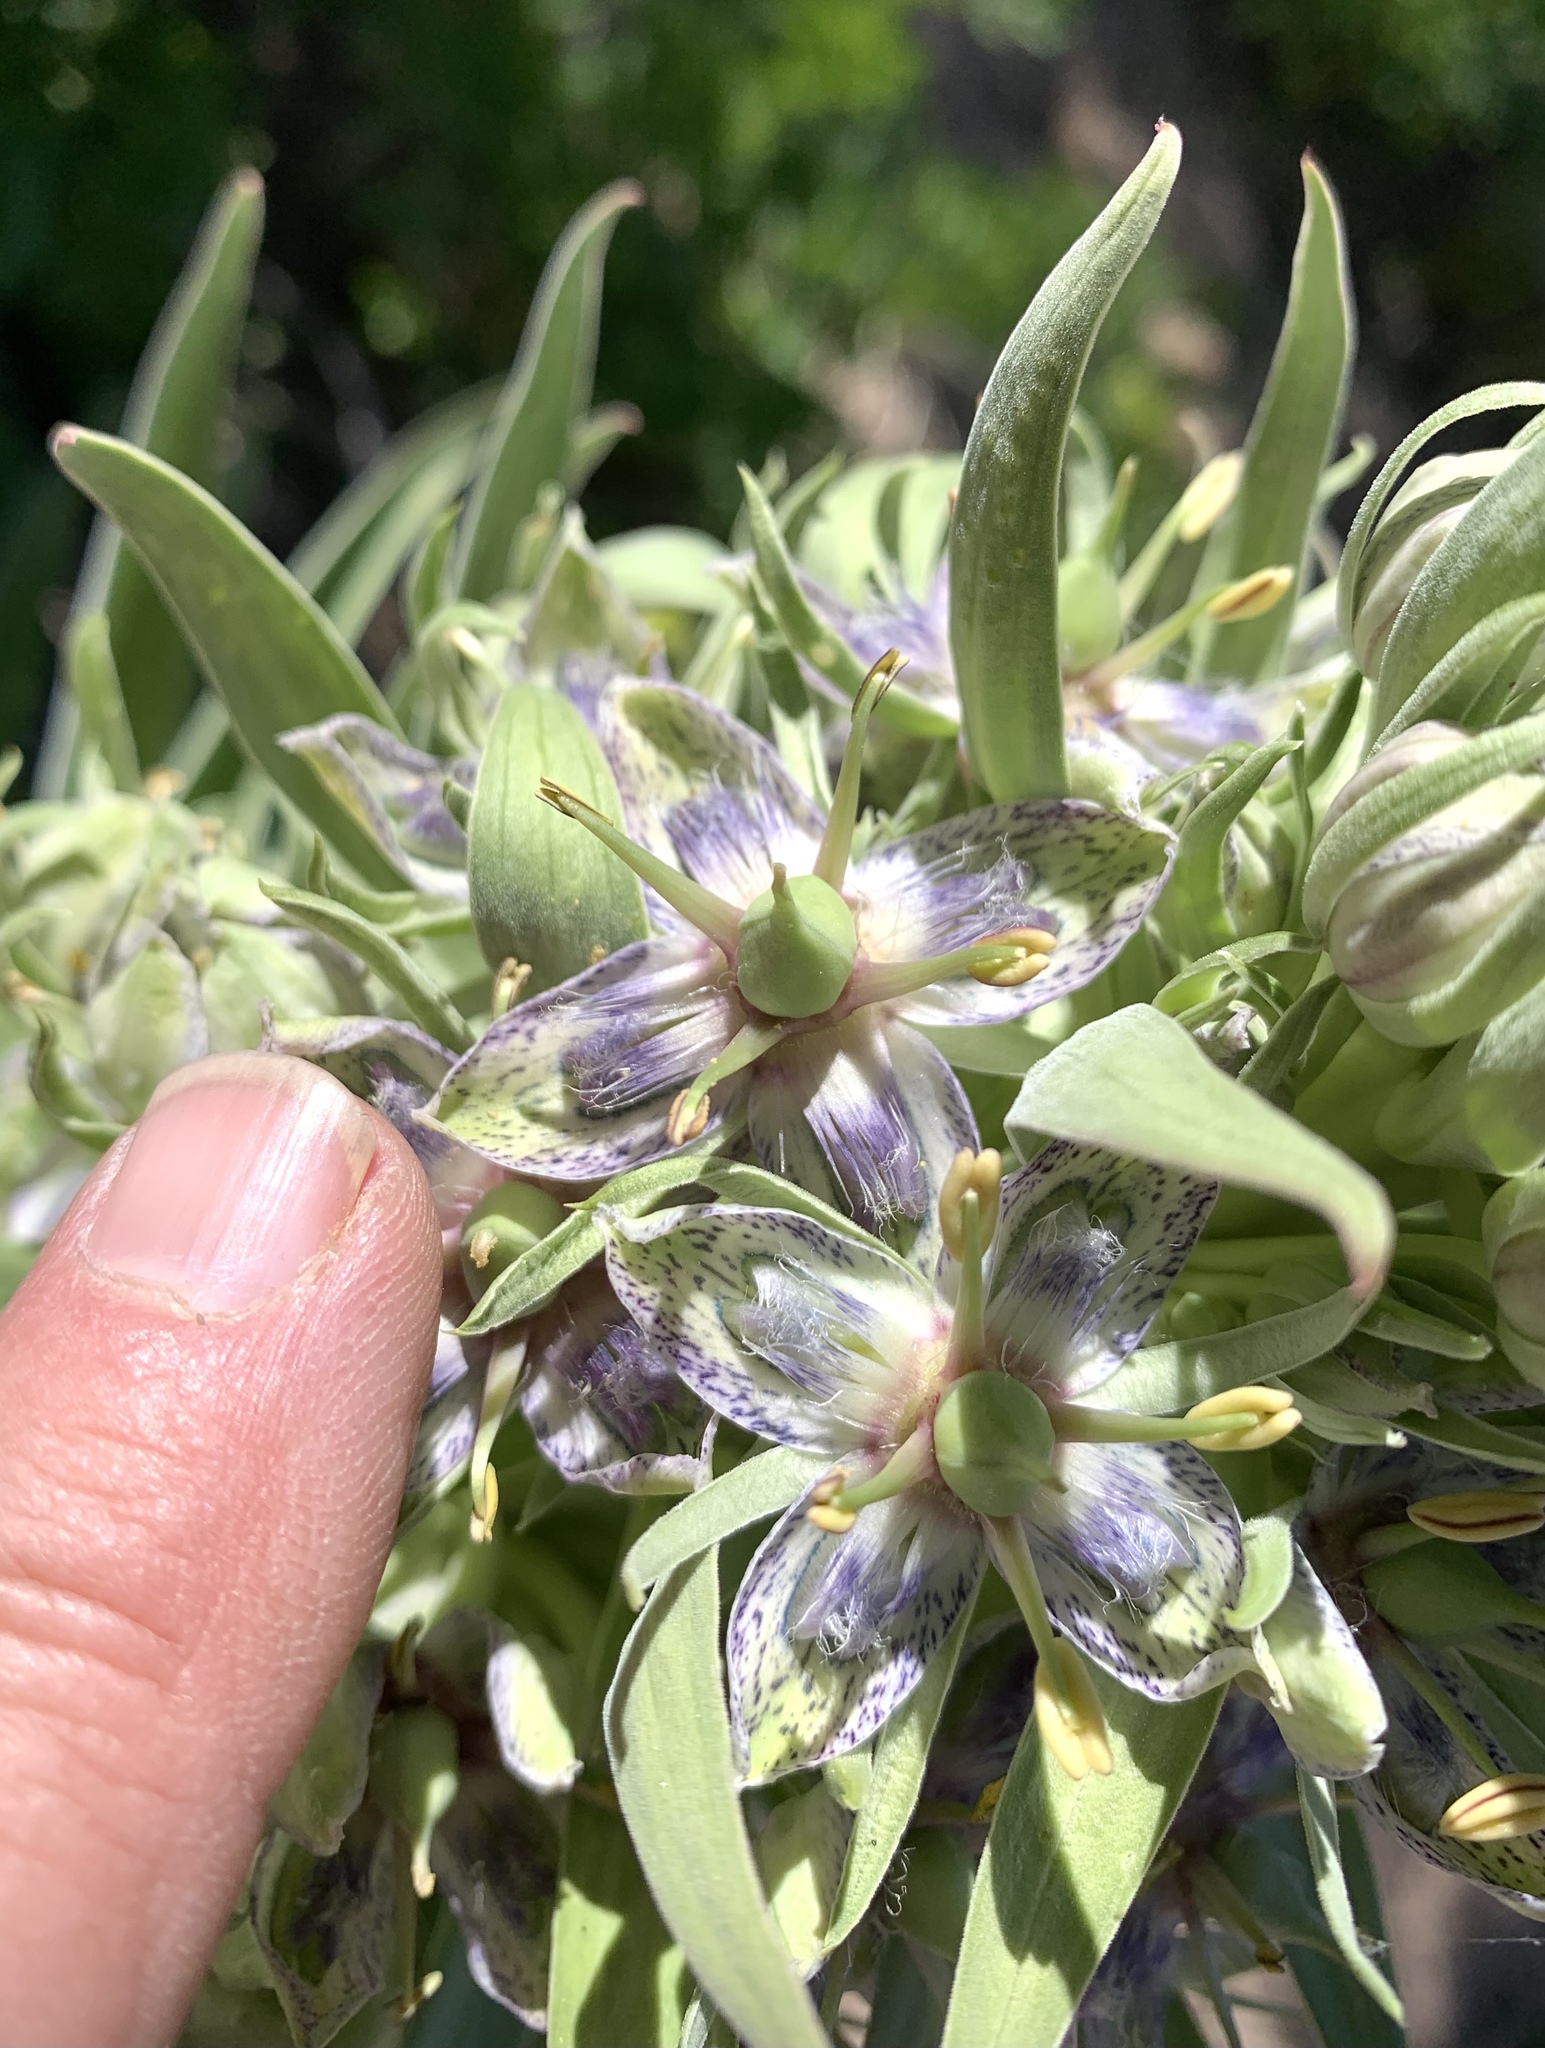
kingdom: Plantae
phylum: Tracheophyta
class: Magnoliopsida
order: Gentianales
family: Gentianaceae
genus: Frasera
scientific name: Frasera speciosa
